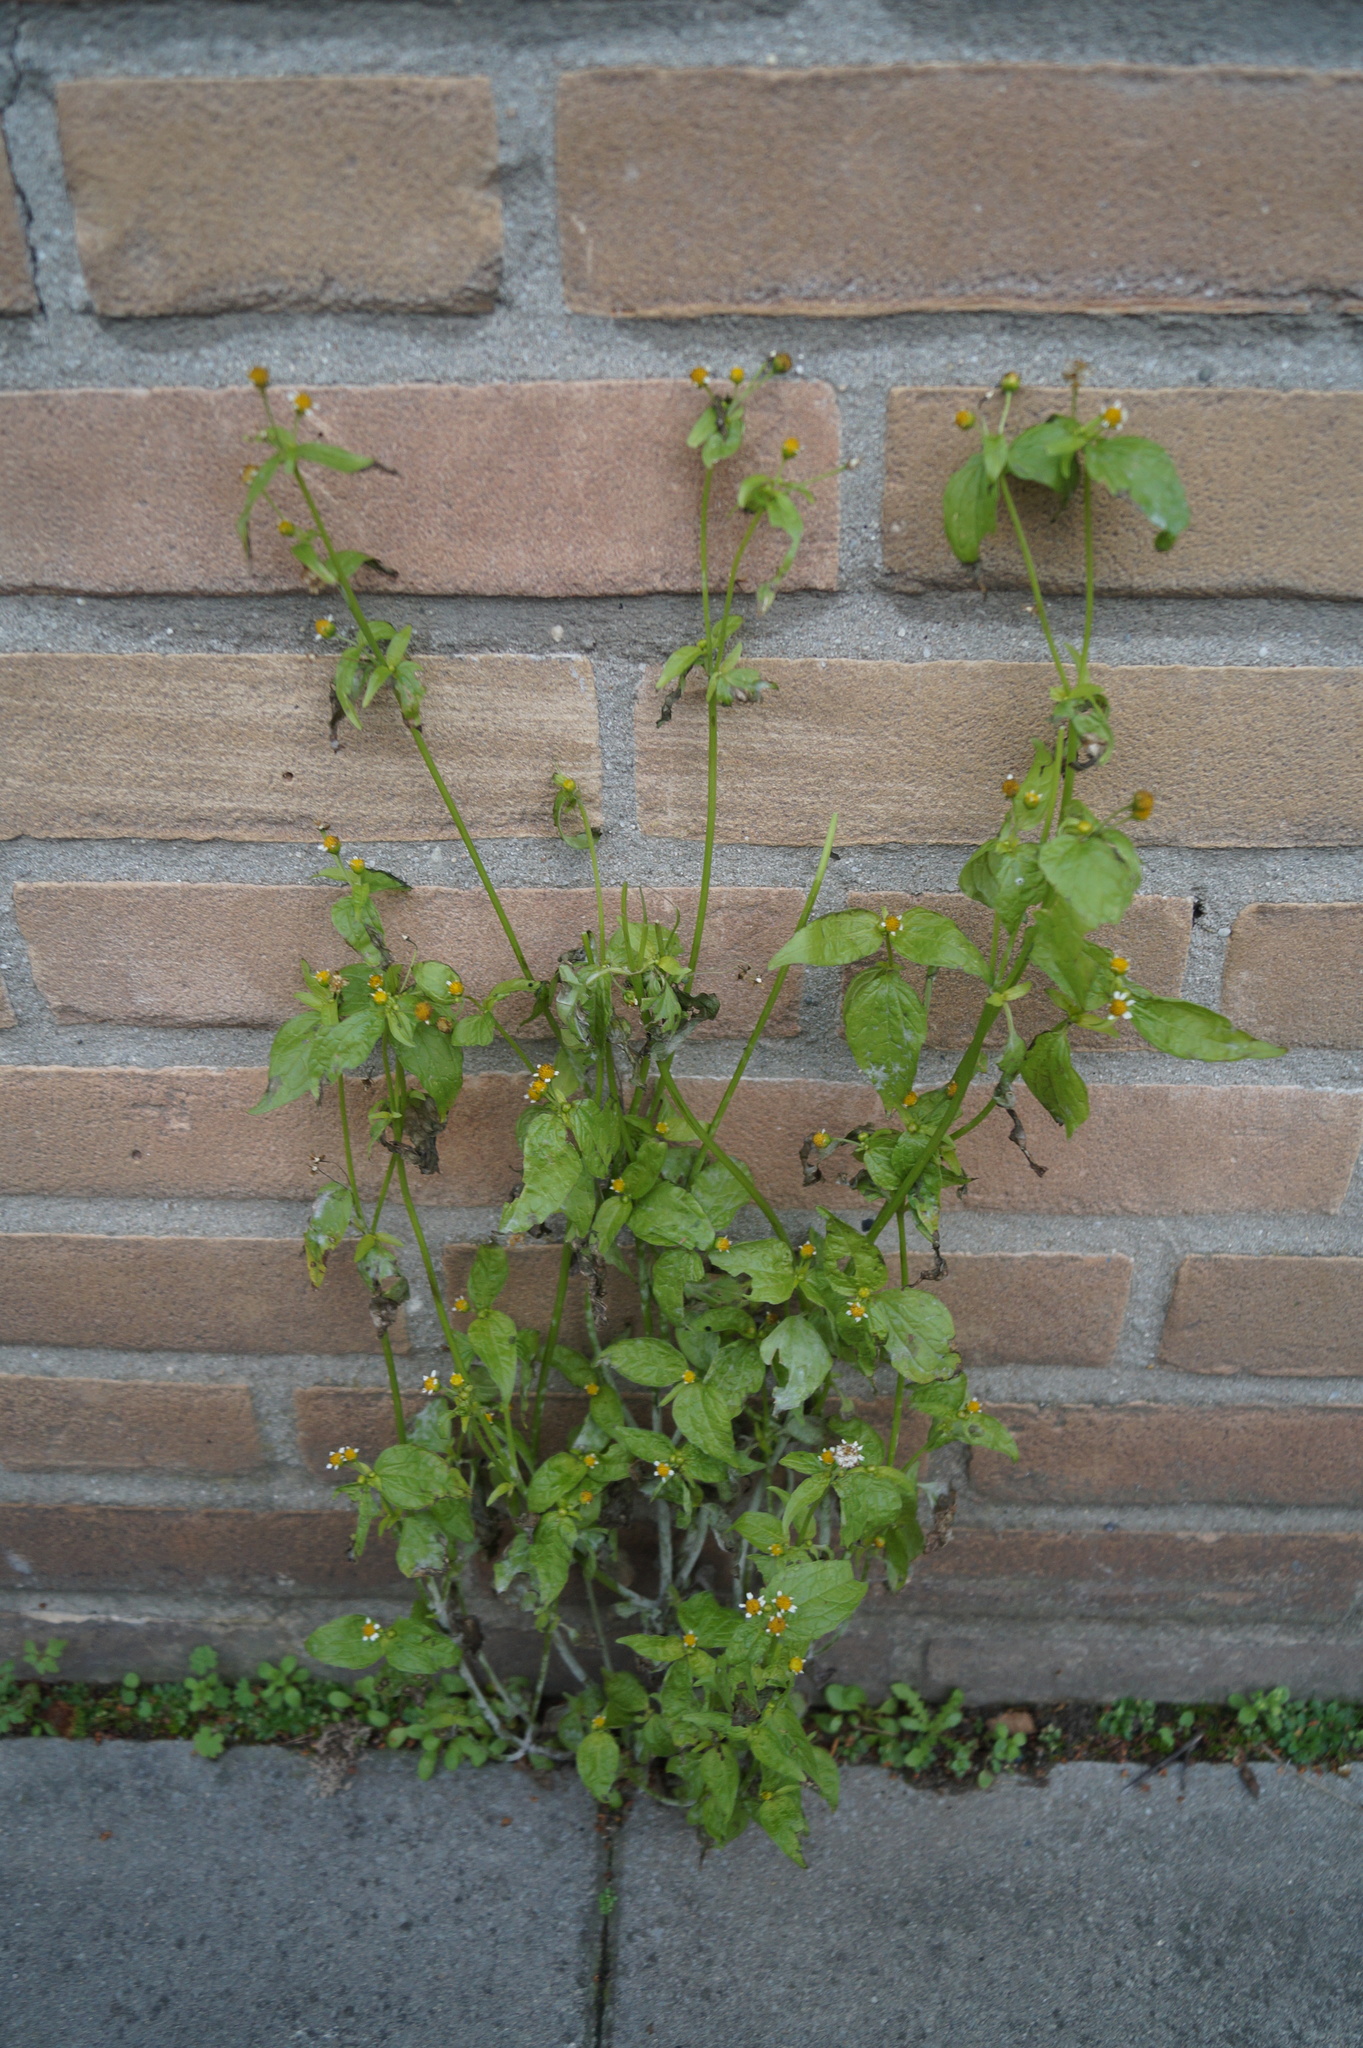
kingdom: Plantae
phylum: Tracheophyta
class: Magnoliopsida
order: Asterales
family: Asteraceae
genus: Galinsoga
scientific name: Galinsoga parviflora
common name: Gallant soldier
